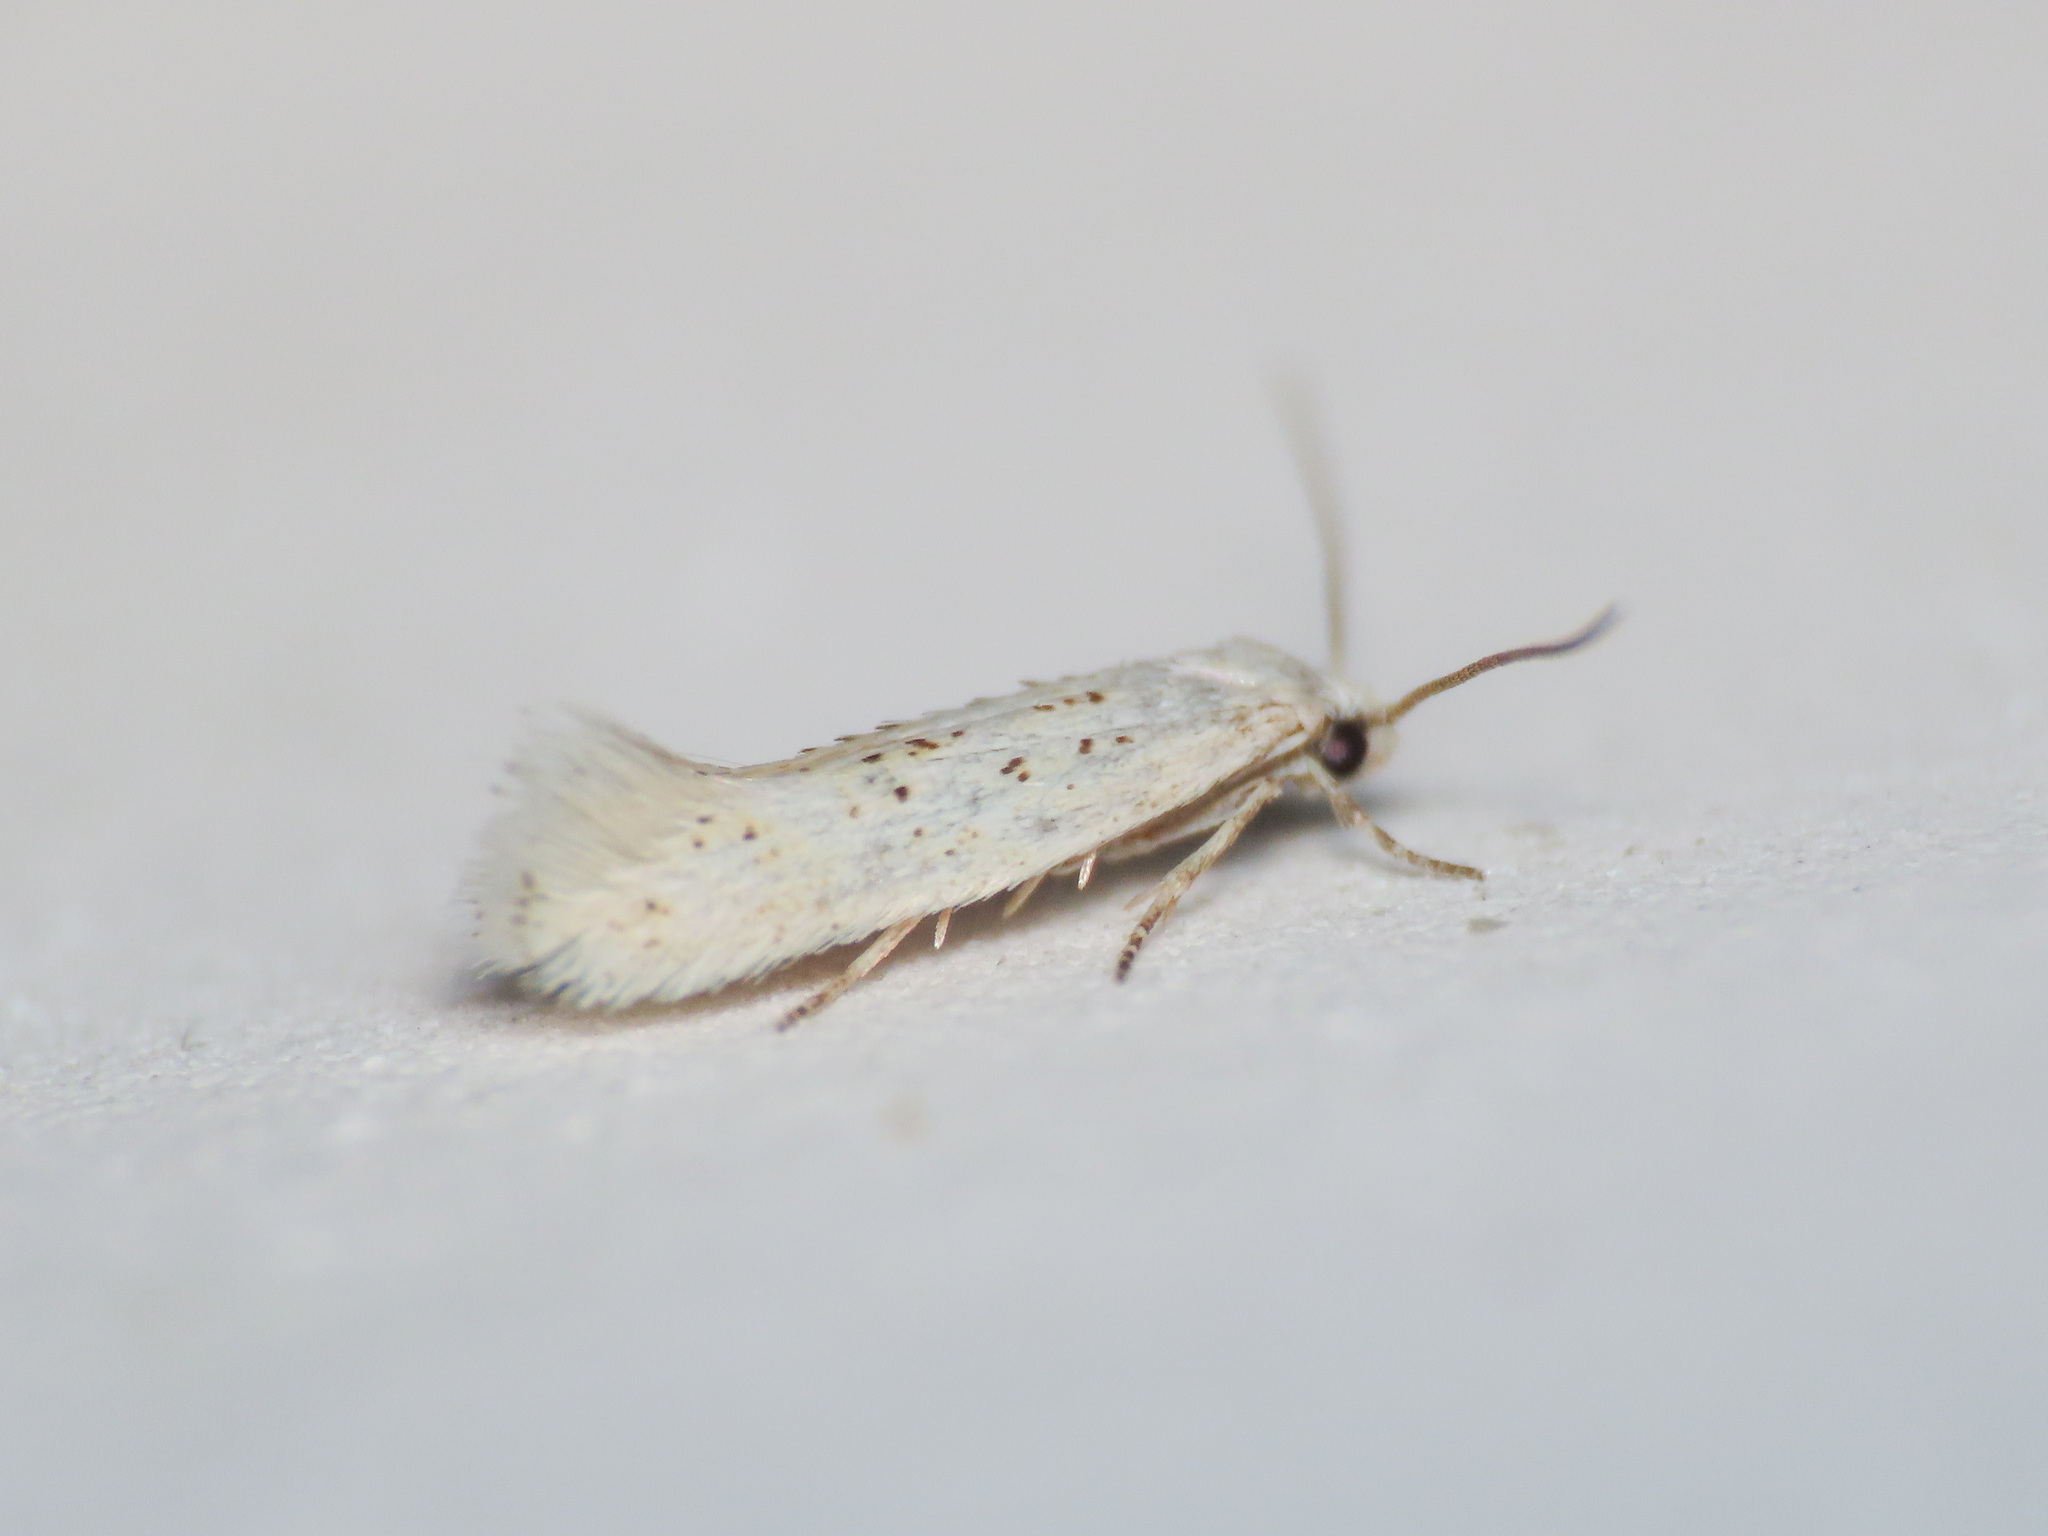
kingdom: Animalia
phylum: Arthropoda
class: Insecta
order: Lepidoptera
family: Elachistidae
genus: Elachista
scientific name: Elachista heringi
